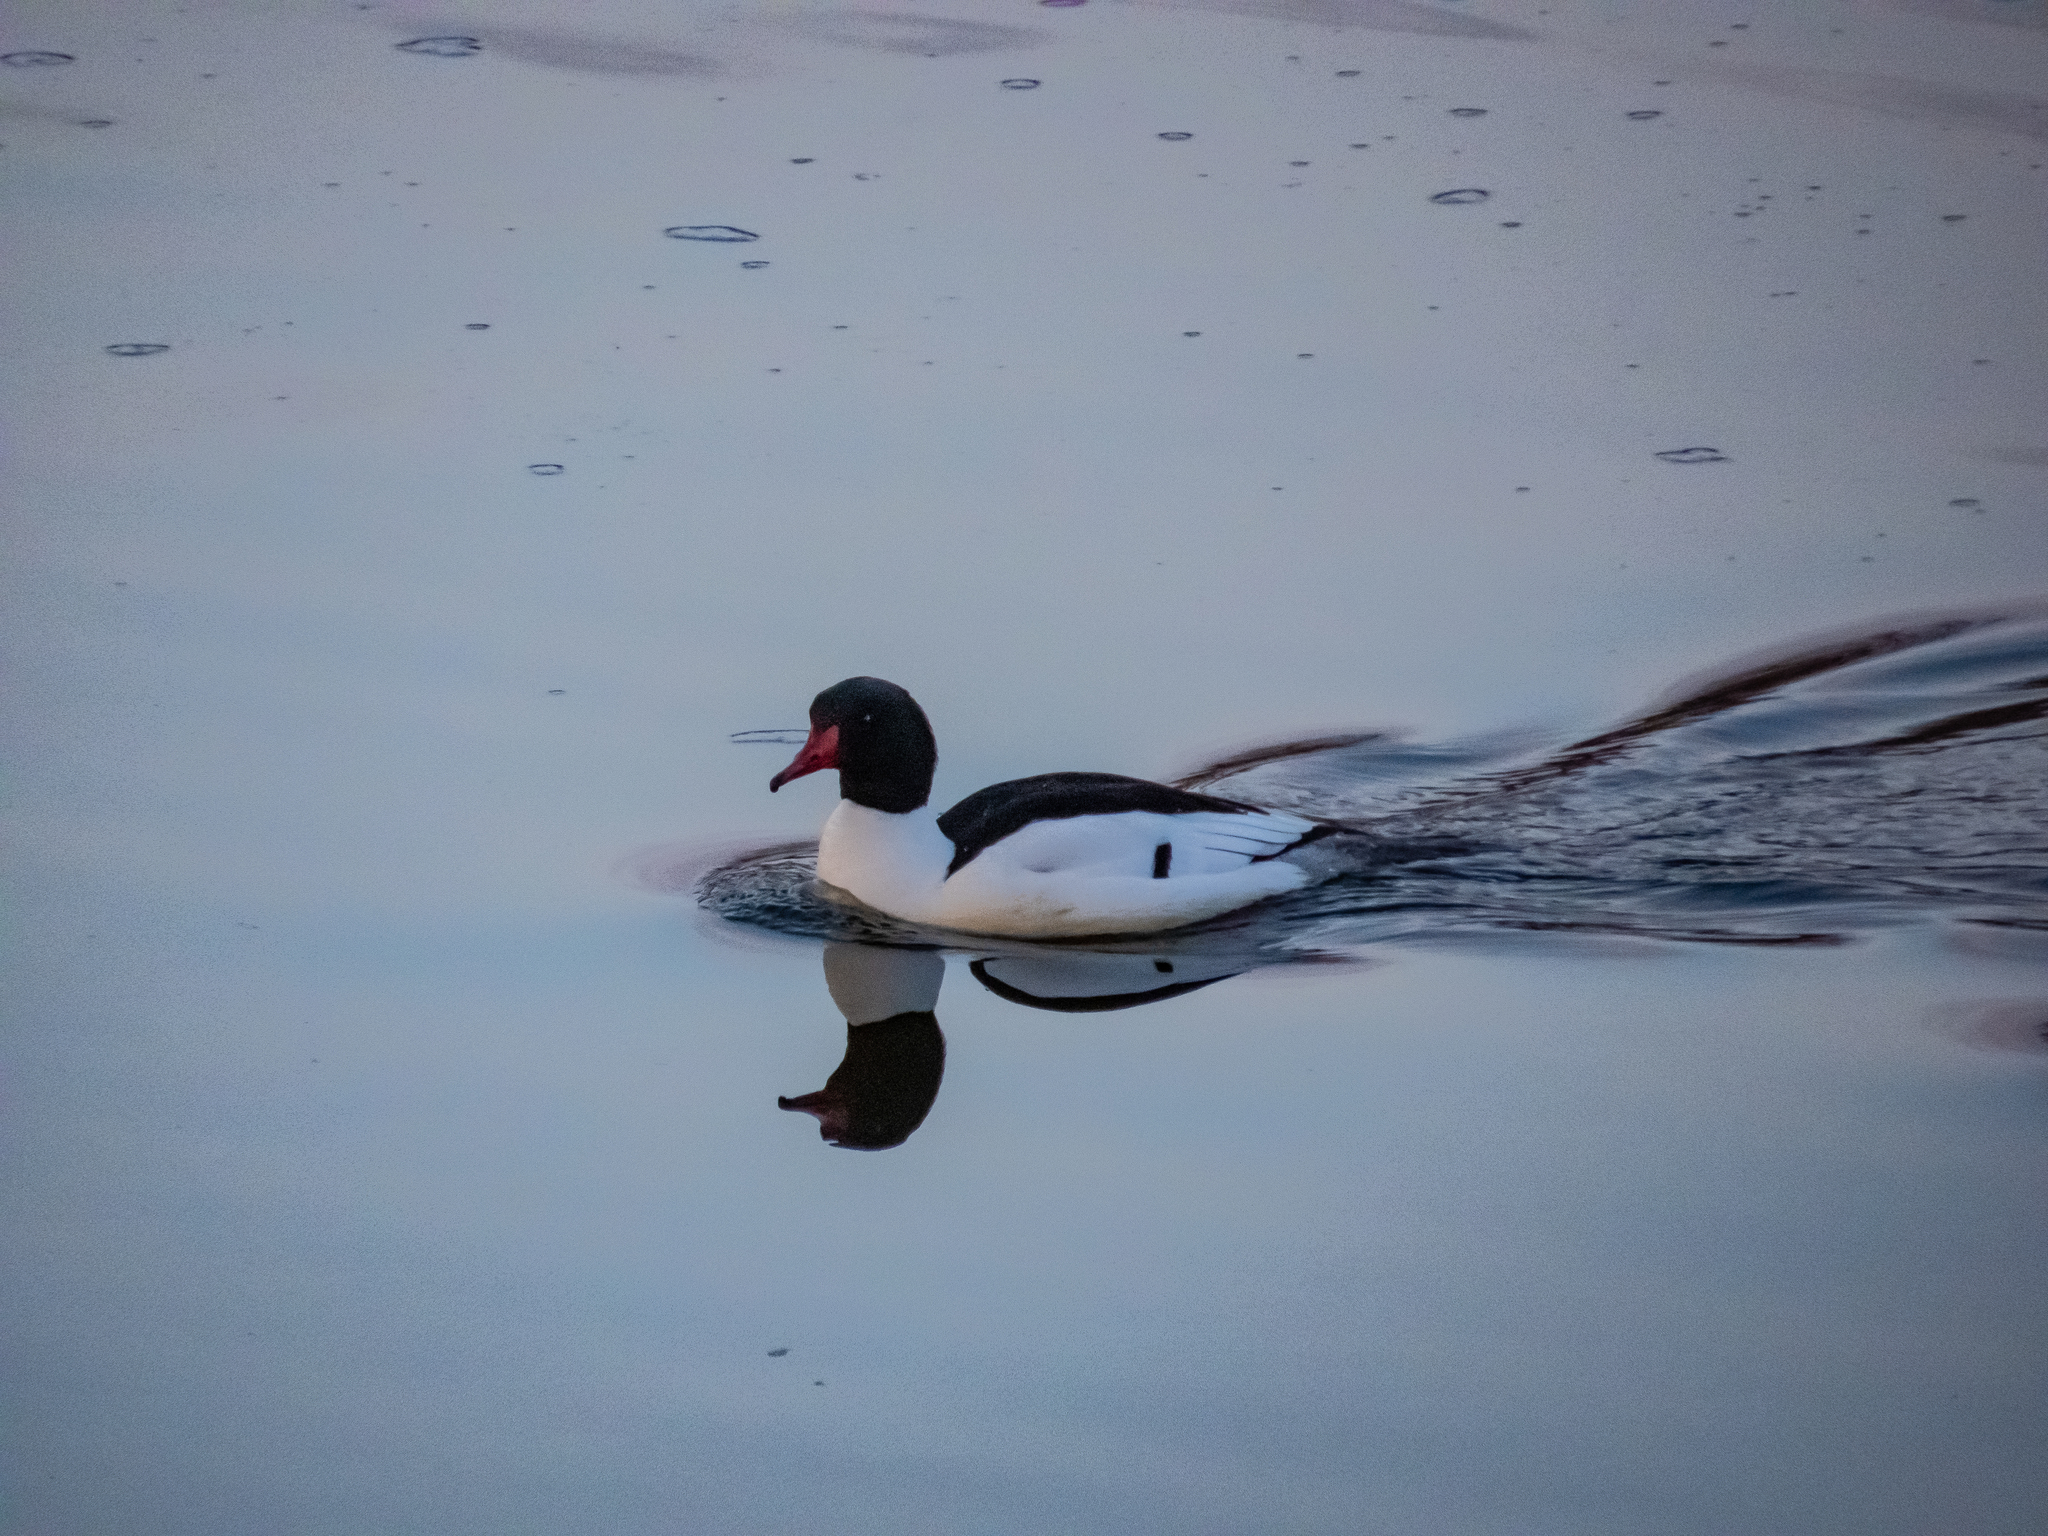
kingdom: Animalia
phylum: Chordata
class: Aves
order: Anseriformes
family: Anatidae
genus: Mergus
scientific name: Mergus merganser
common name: Common merganser
